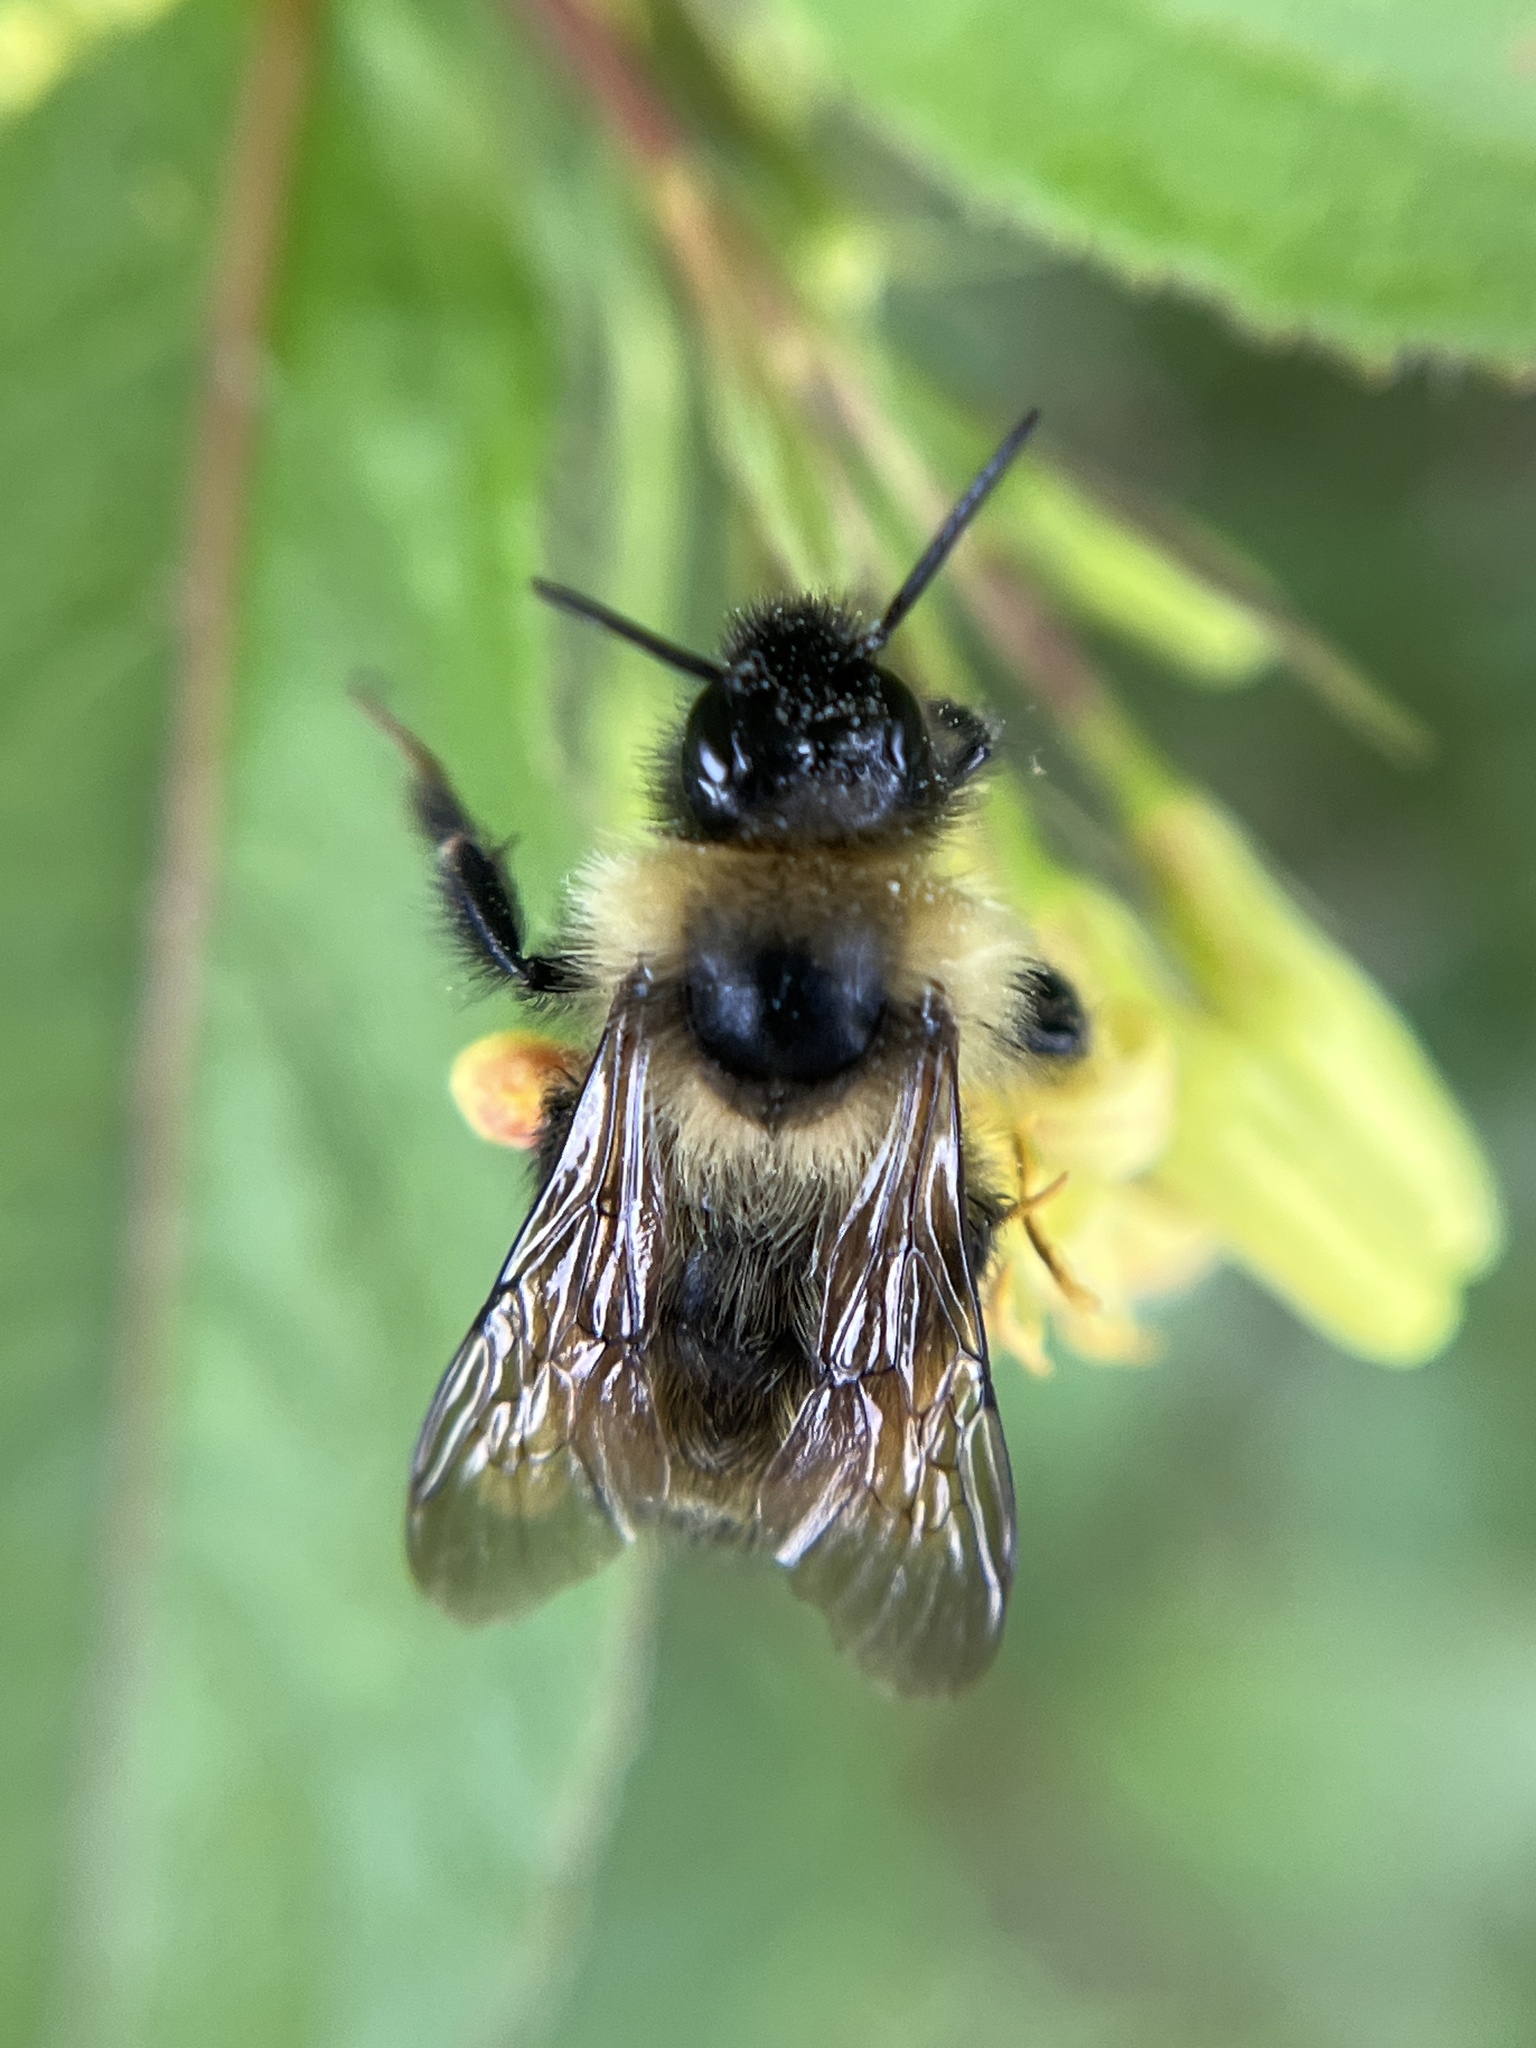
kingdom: Animalia
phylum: Arthropoda
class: Insecta
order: Hymenoptera
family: Apidae
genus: Bombus
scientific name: Bombus flavidus
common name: Fernald cuckoo bumble bee
